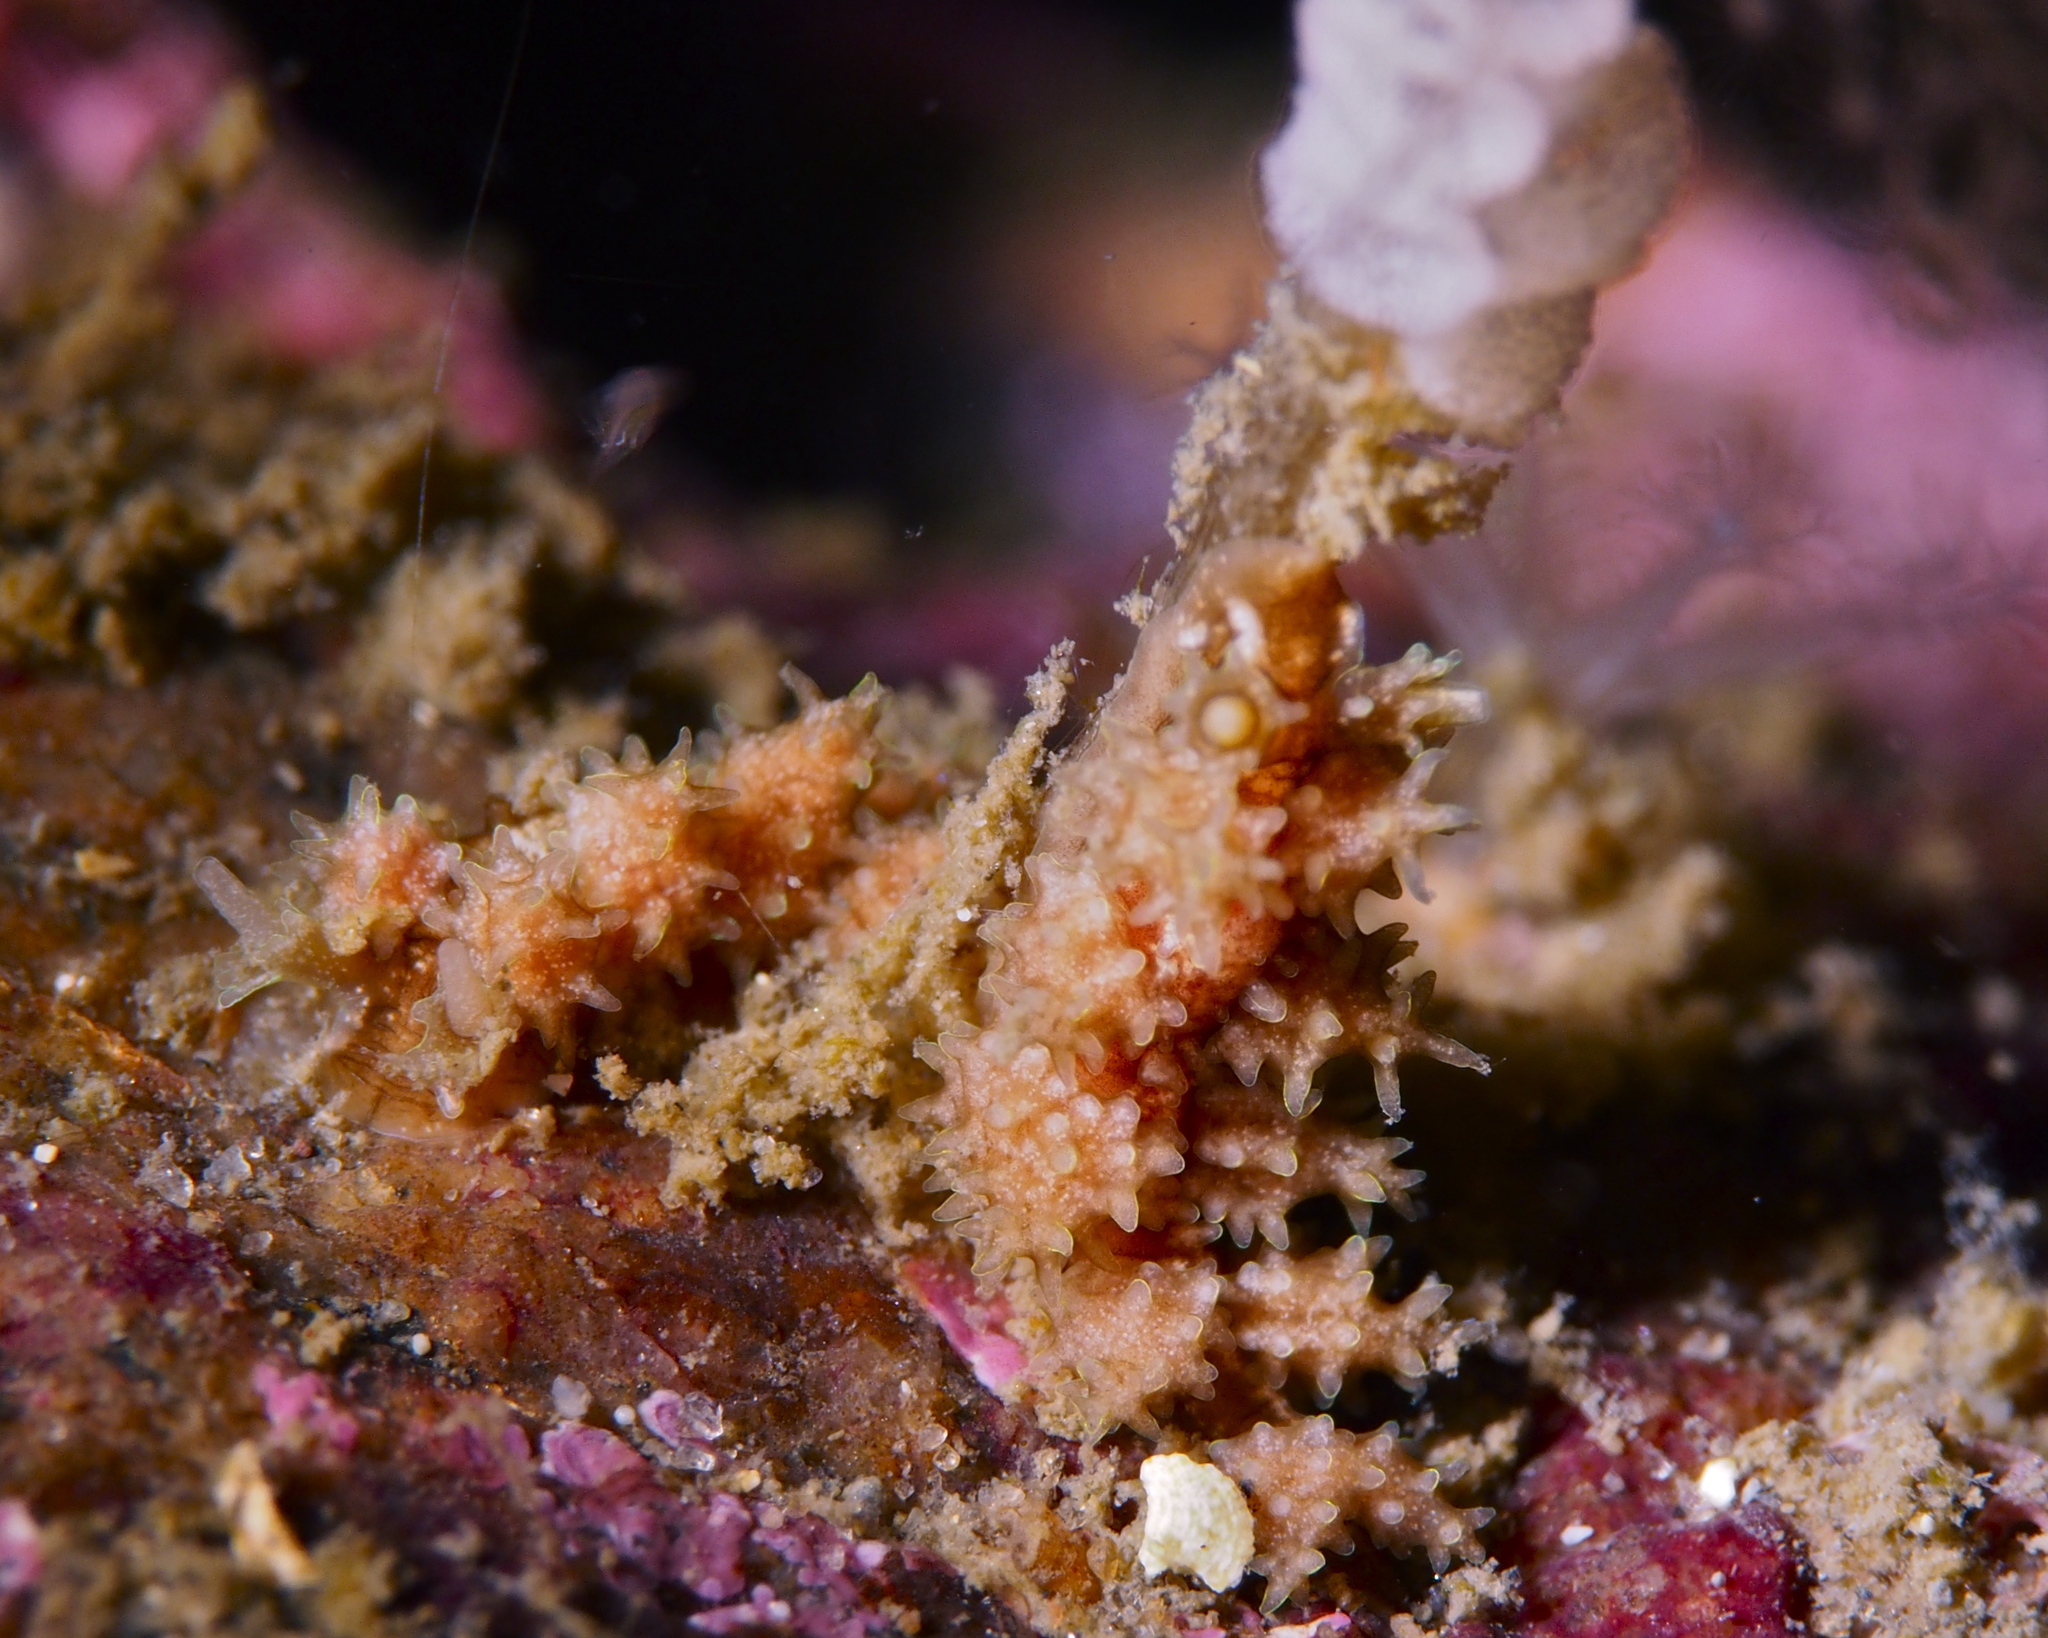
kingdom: Animalia
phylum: Mollusca
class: Gastropoda
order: Nudibranchia
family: Dotidae
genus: Doto
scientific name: Doto hystrix
